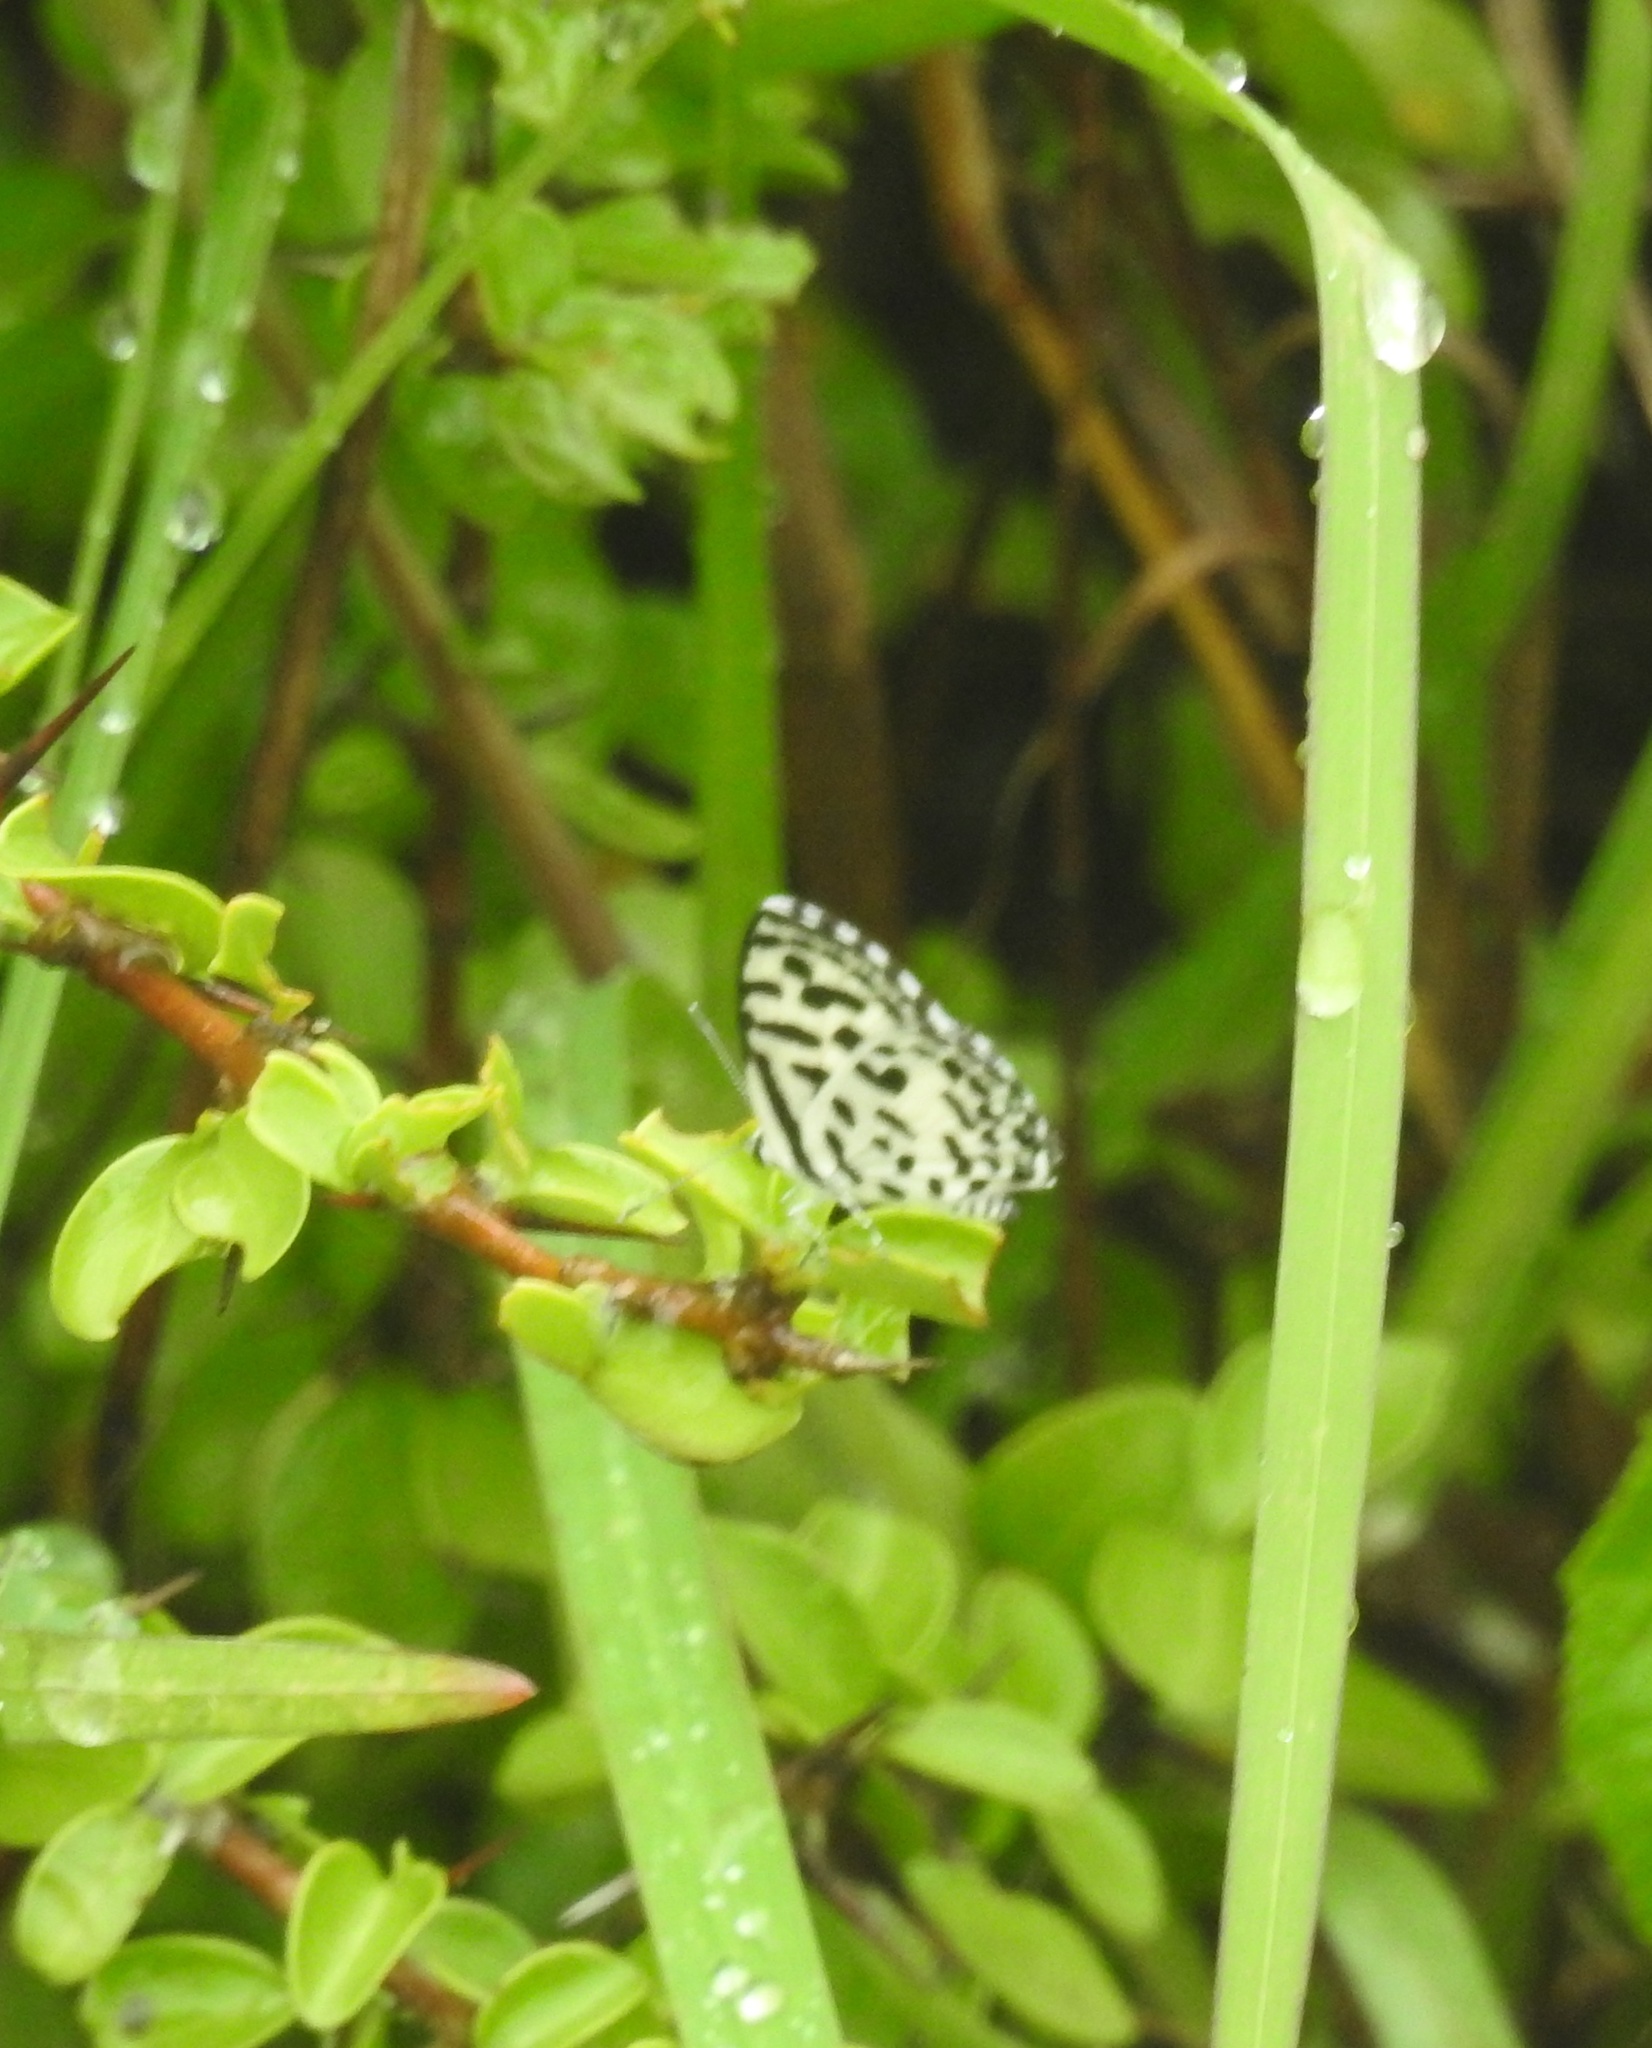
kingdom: Animalia
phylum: Arthropoda
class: Insecta
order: Lepidoptera
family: Lycaenidae
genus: Castalius
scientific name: Castalius rosimon
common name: Common pierrot
